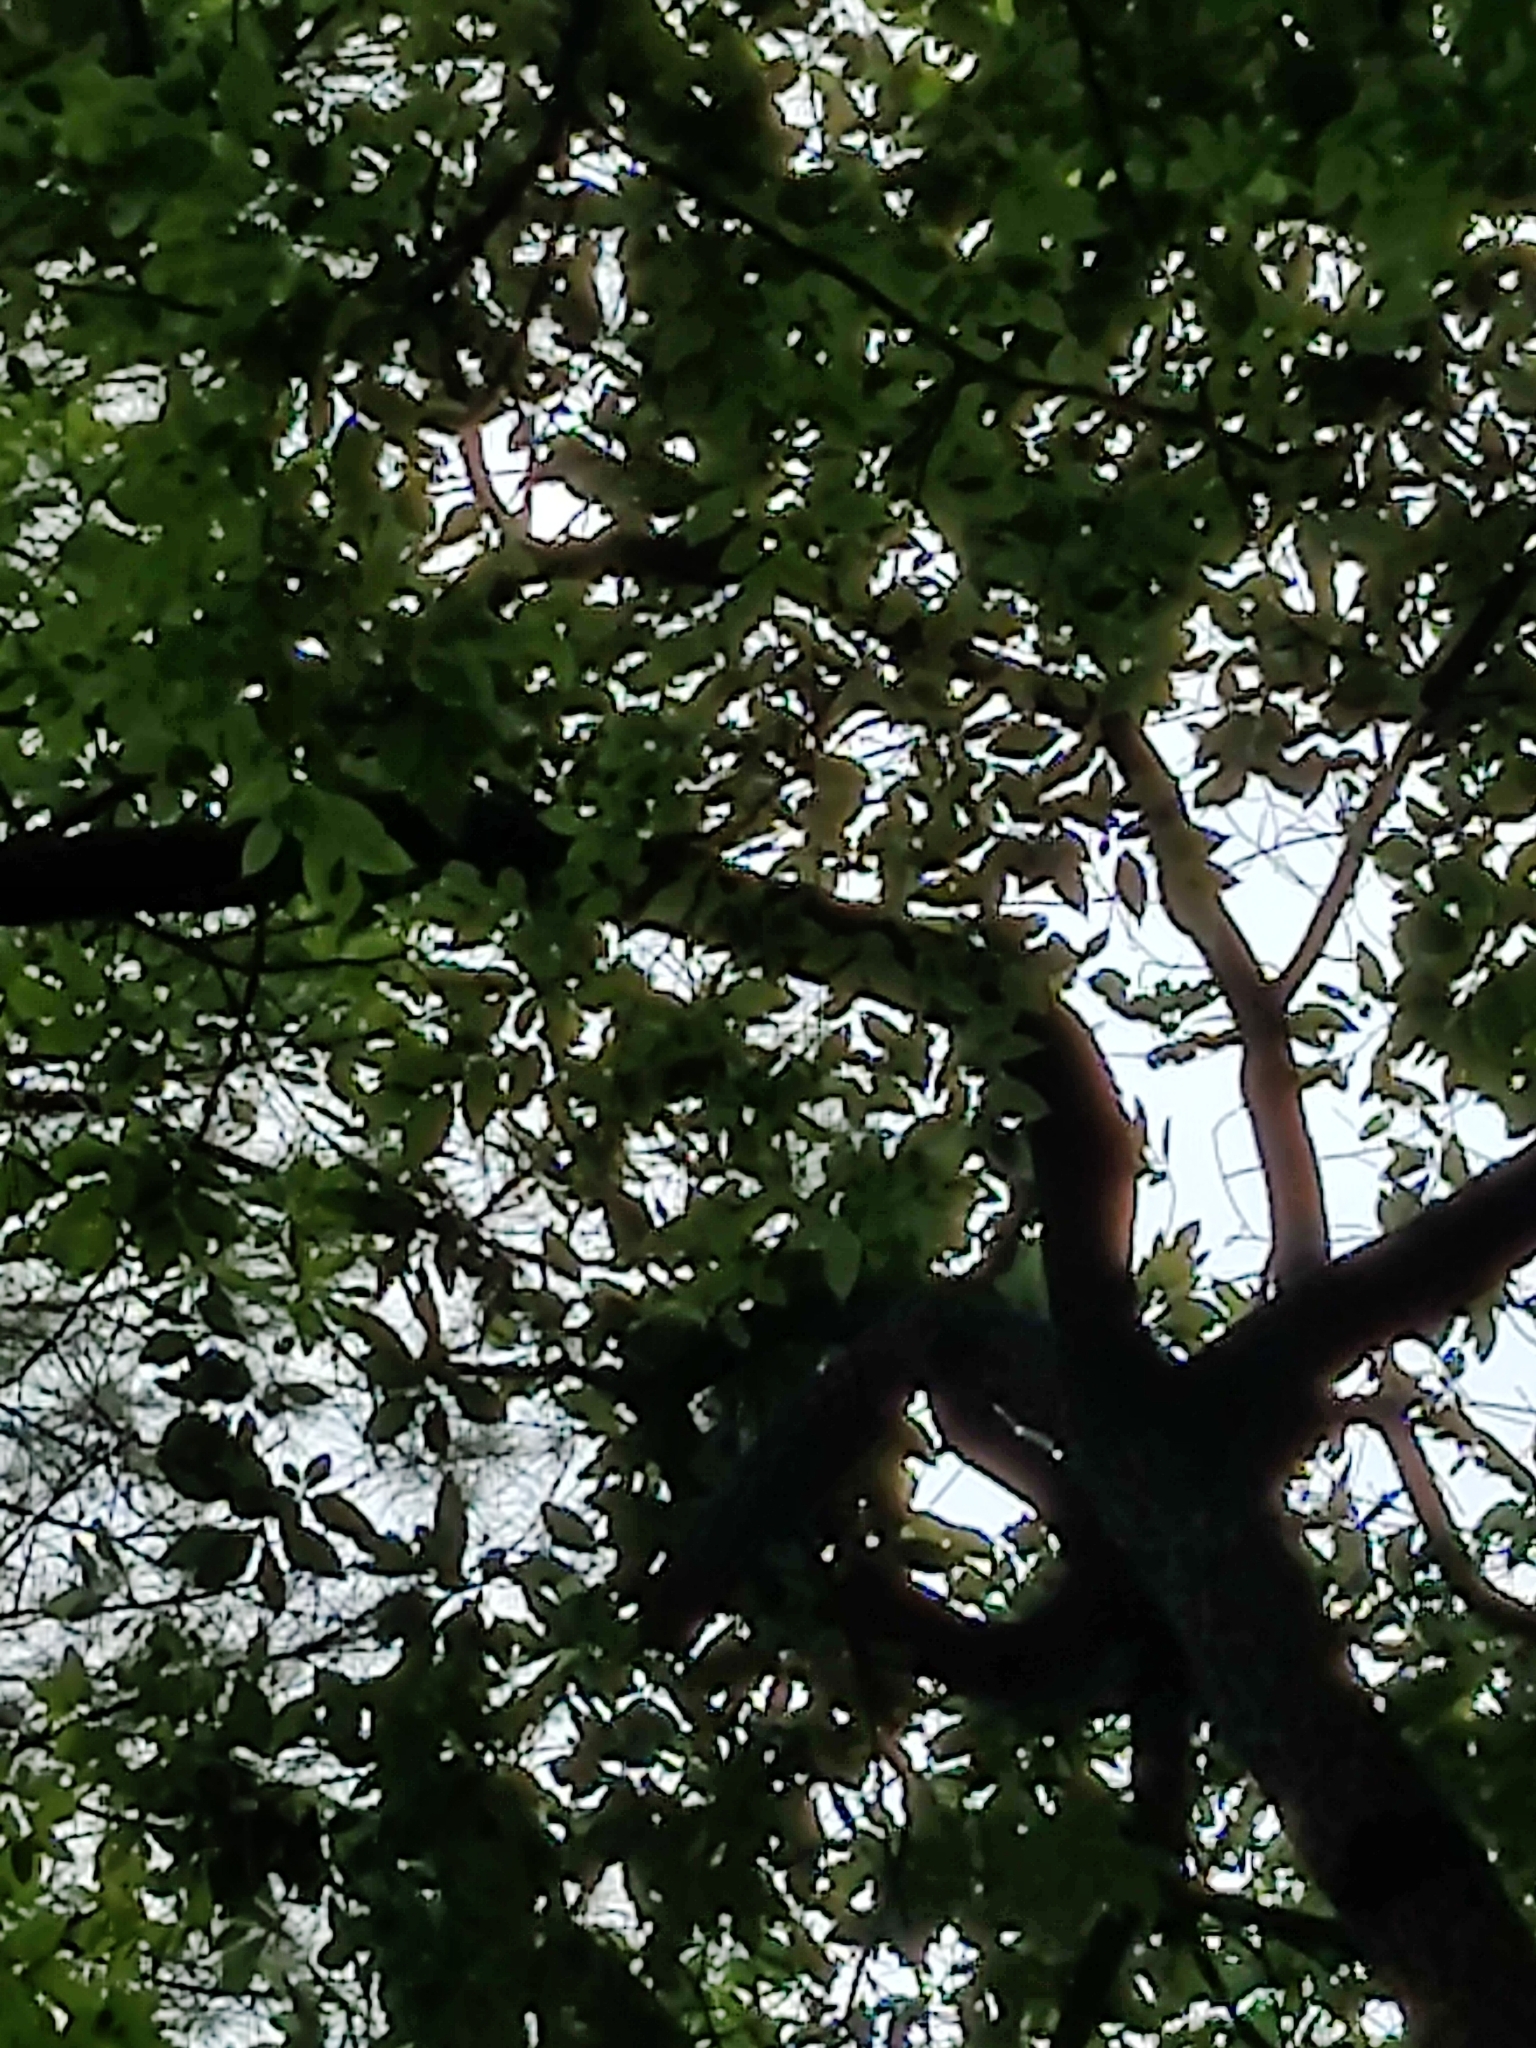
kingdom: Plantae
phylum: Tracheophyta
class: Magnoliopsida
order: Laurales
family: Lauraceae
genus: Sassafras
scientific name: Sassafras albidum
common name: Sassafras
